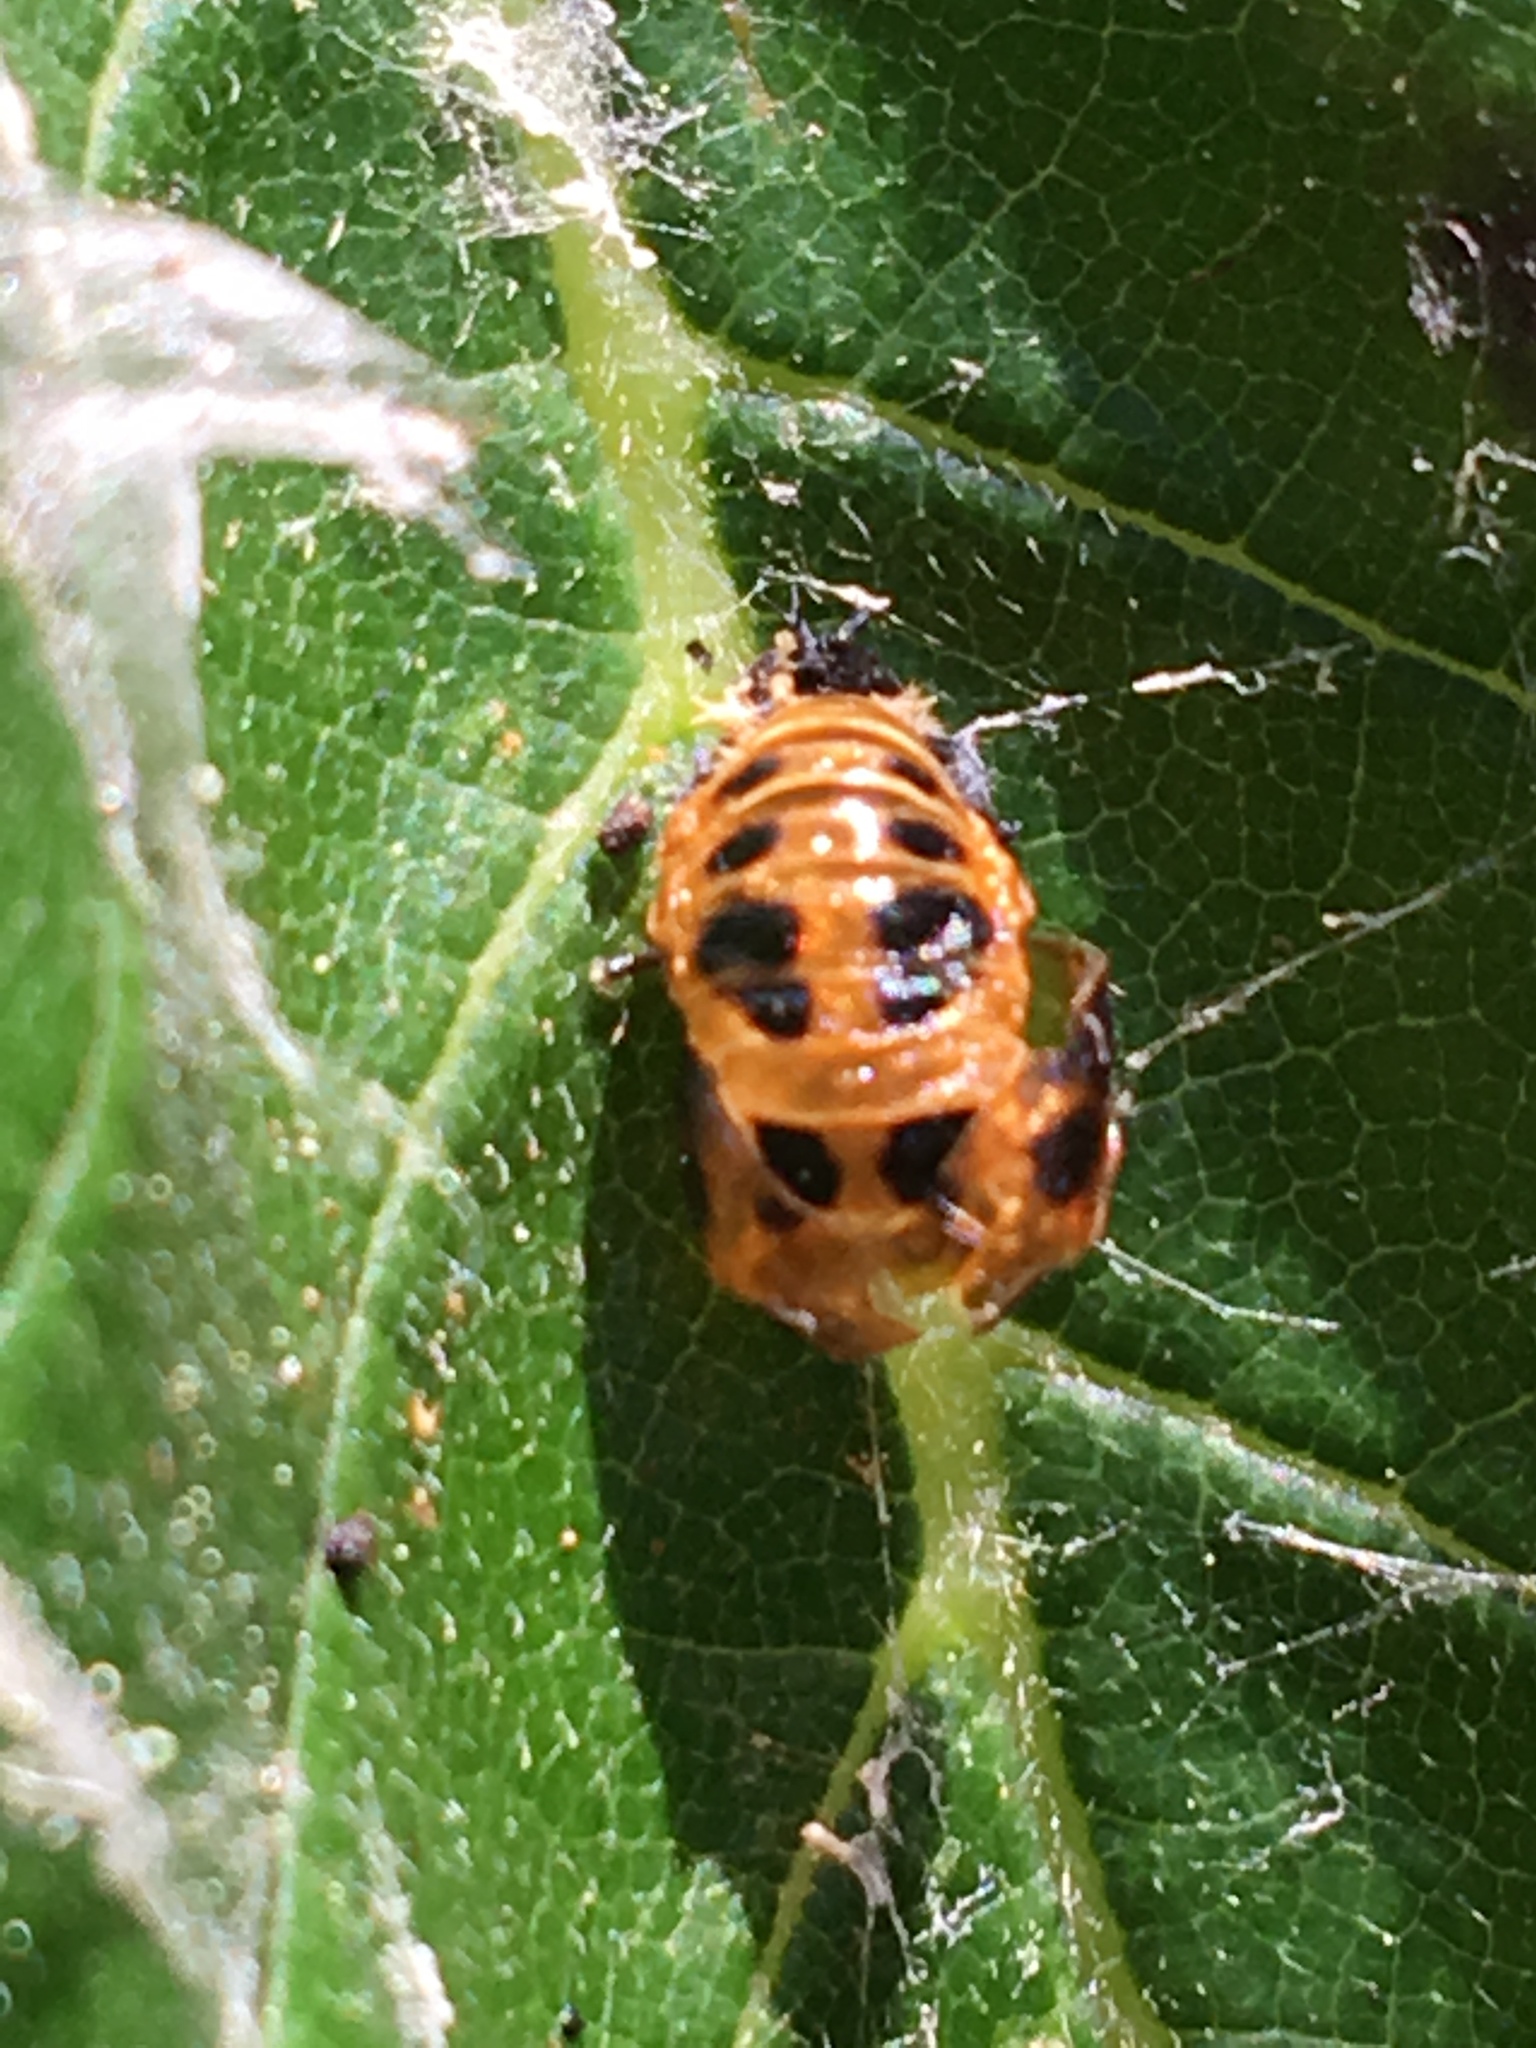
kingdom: Animalia
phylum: Arthropoda
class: Insecta
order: Coleoptera
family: Coccinellidae
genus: Harmonia
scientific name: Harmonia axyridis
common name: Harlequin ladybird
